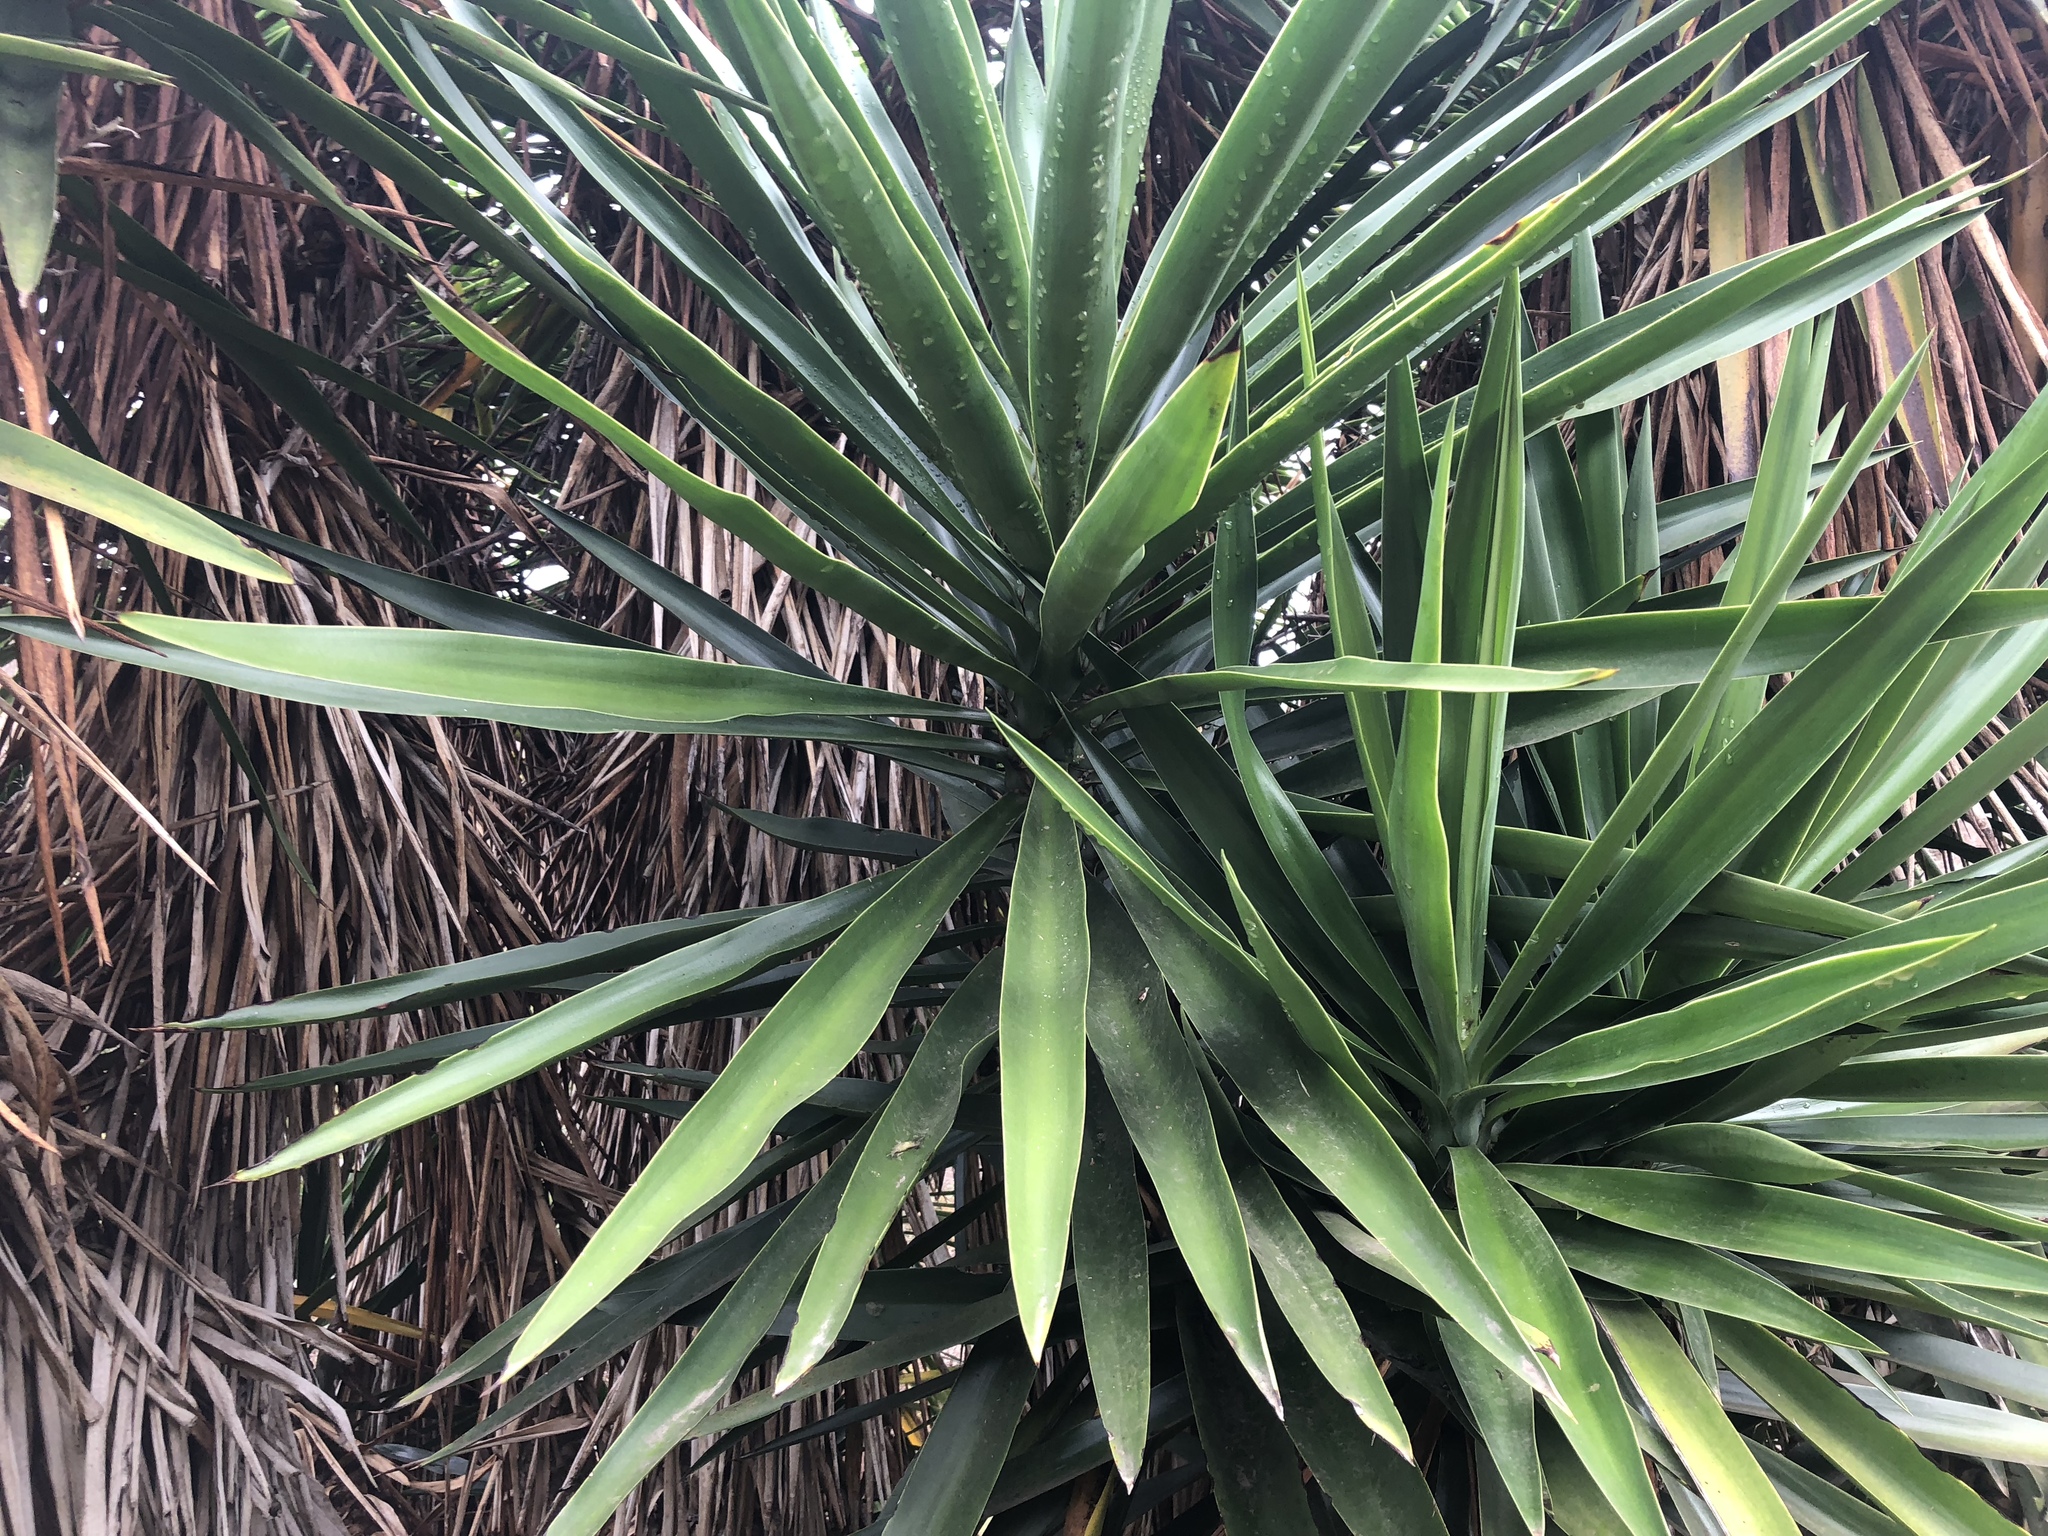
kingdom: Plantae
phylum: Tracheophyta
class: Liliopsida
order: Asparagales
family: Asparagaceae
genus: Yucca
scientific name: Yucca gigantea
